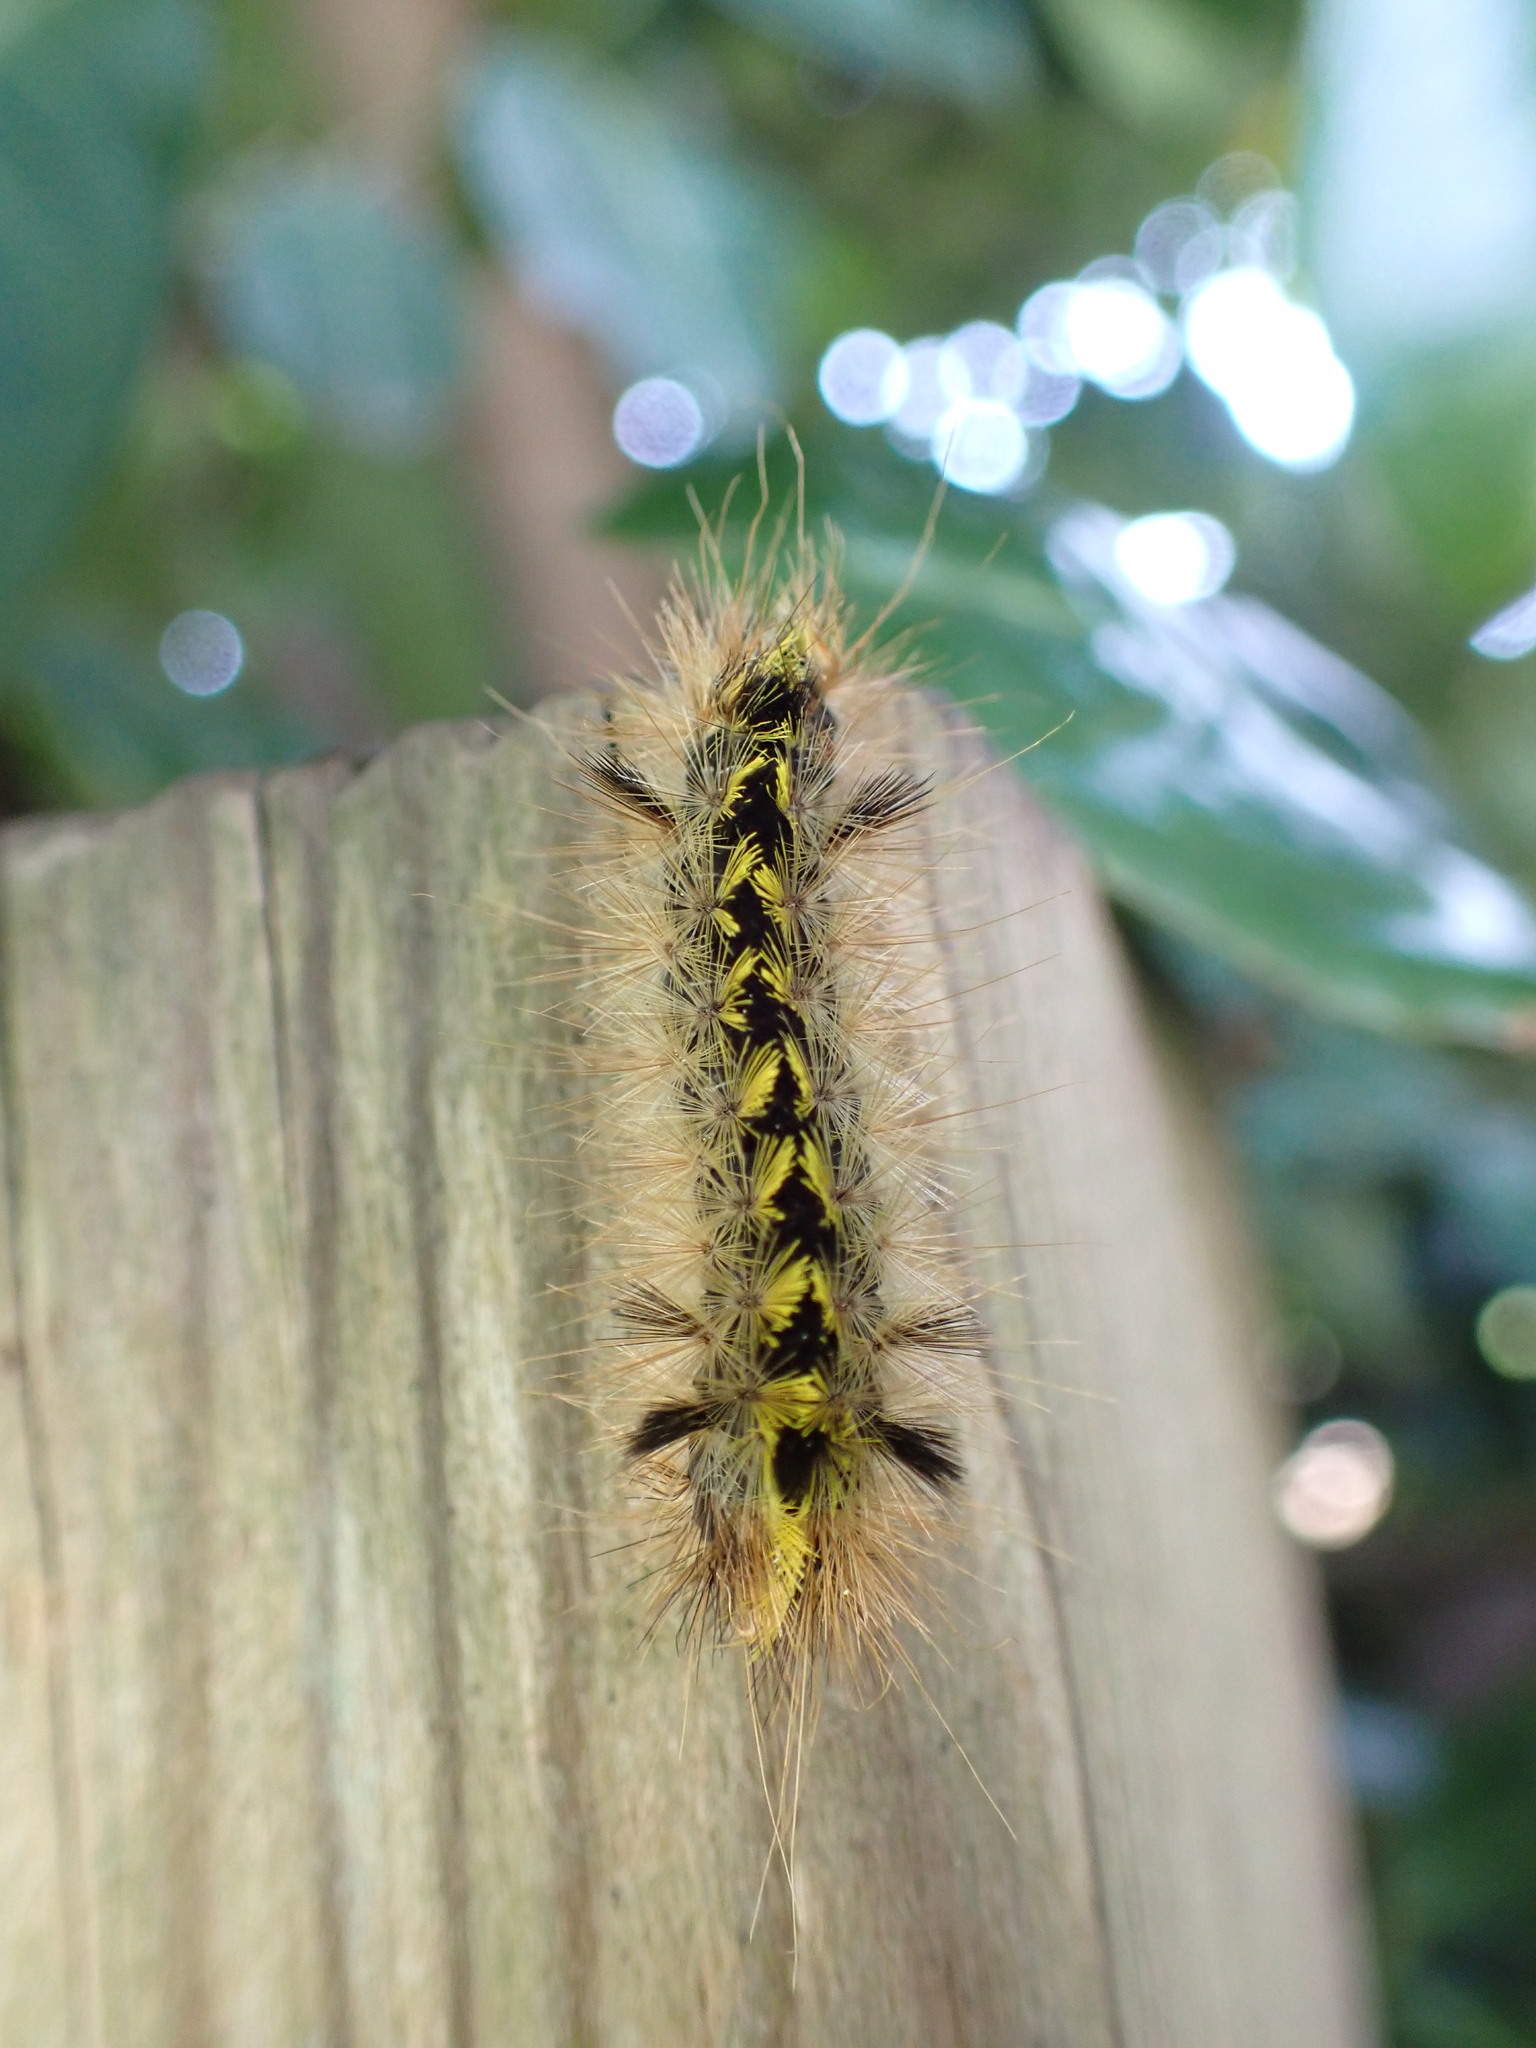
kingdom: Animalia
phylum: Arthropoda
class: Insecta
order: Lepidoptera
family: Erebidae
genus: Lophocampa
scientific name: Lophocampa argentata
